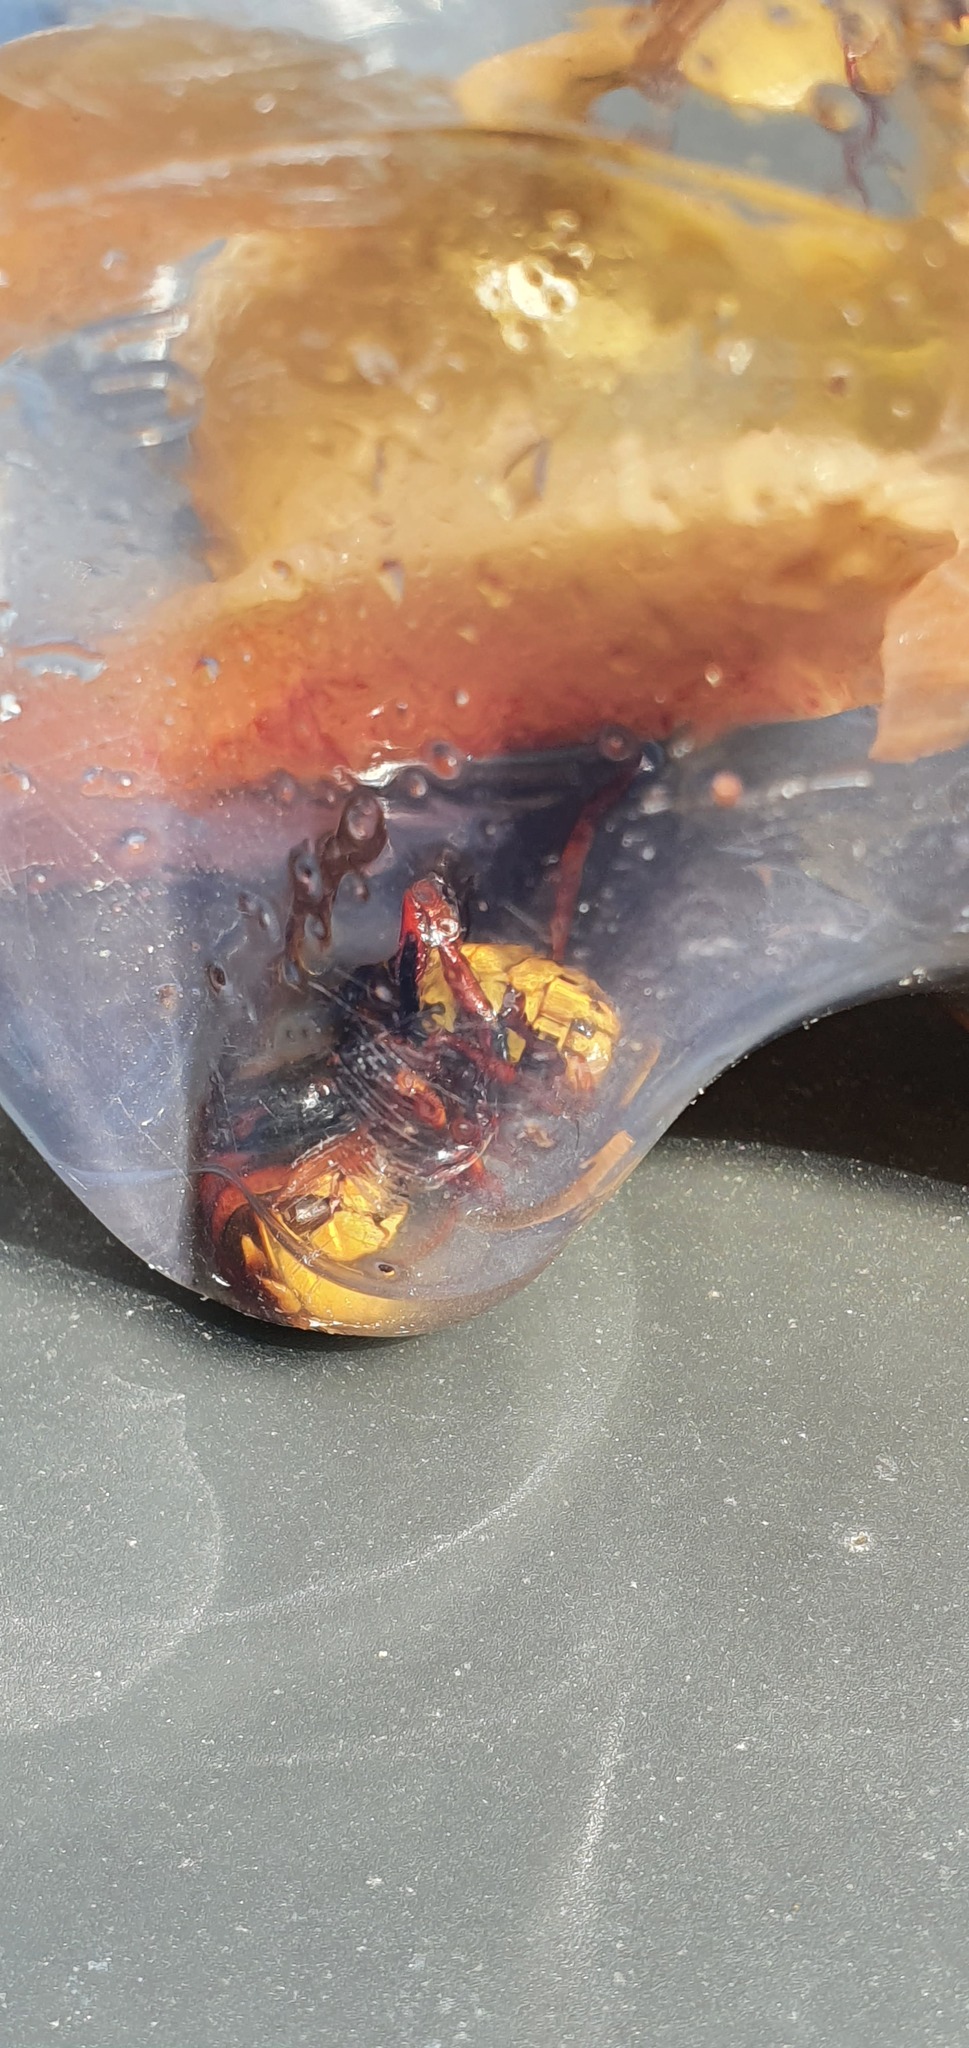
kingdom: Animalia
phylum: Arthropoda
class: Insecta
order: Hymenoptera
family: Vespidae
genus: Vespa
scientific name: Vespa crabro
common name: Hornet
